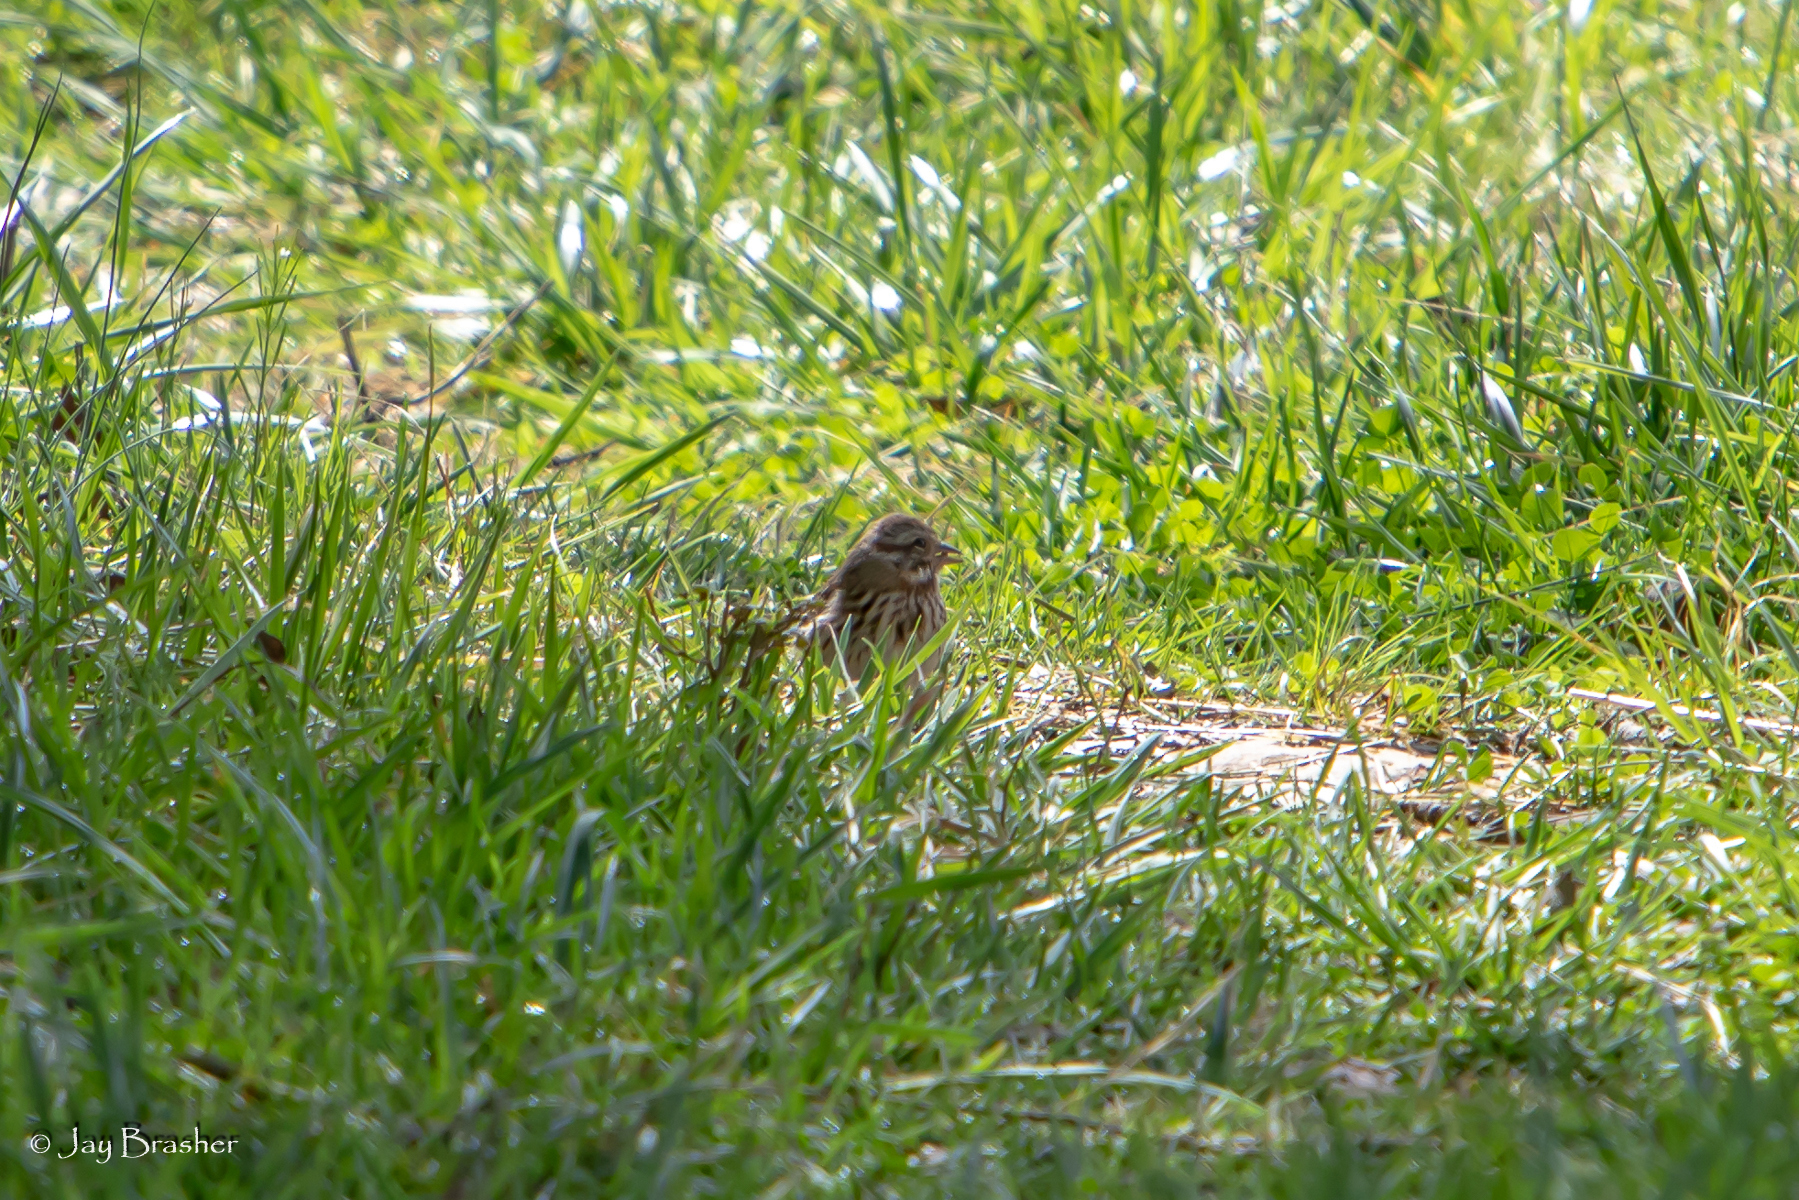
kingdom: Animalia
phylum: Chordata
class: Aves
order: Passeriformes
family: Passerellidae
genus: Melospiza
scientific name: Melospiza melodia
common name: Song sparrow
